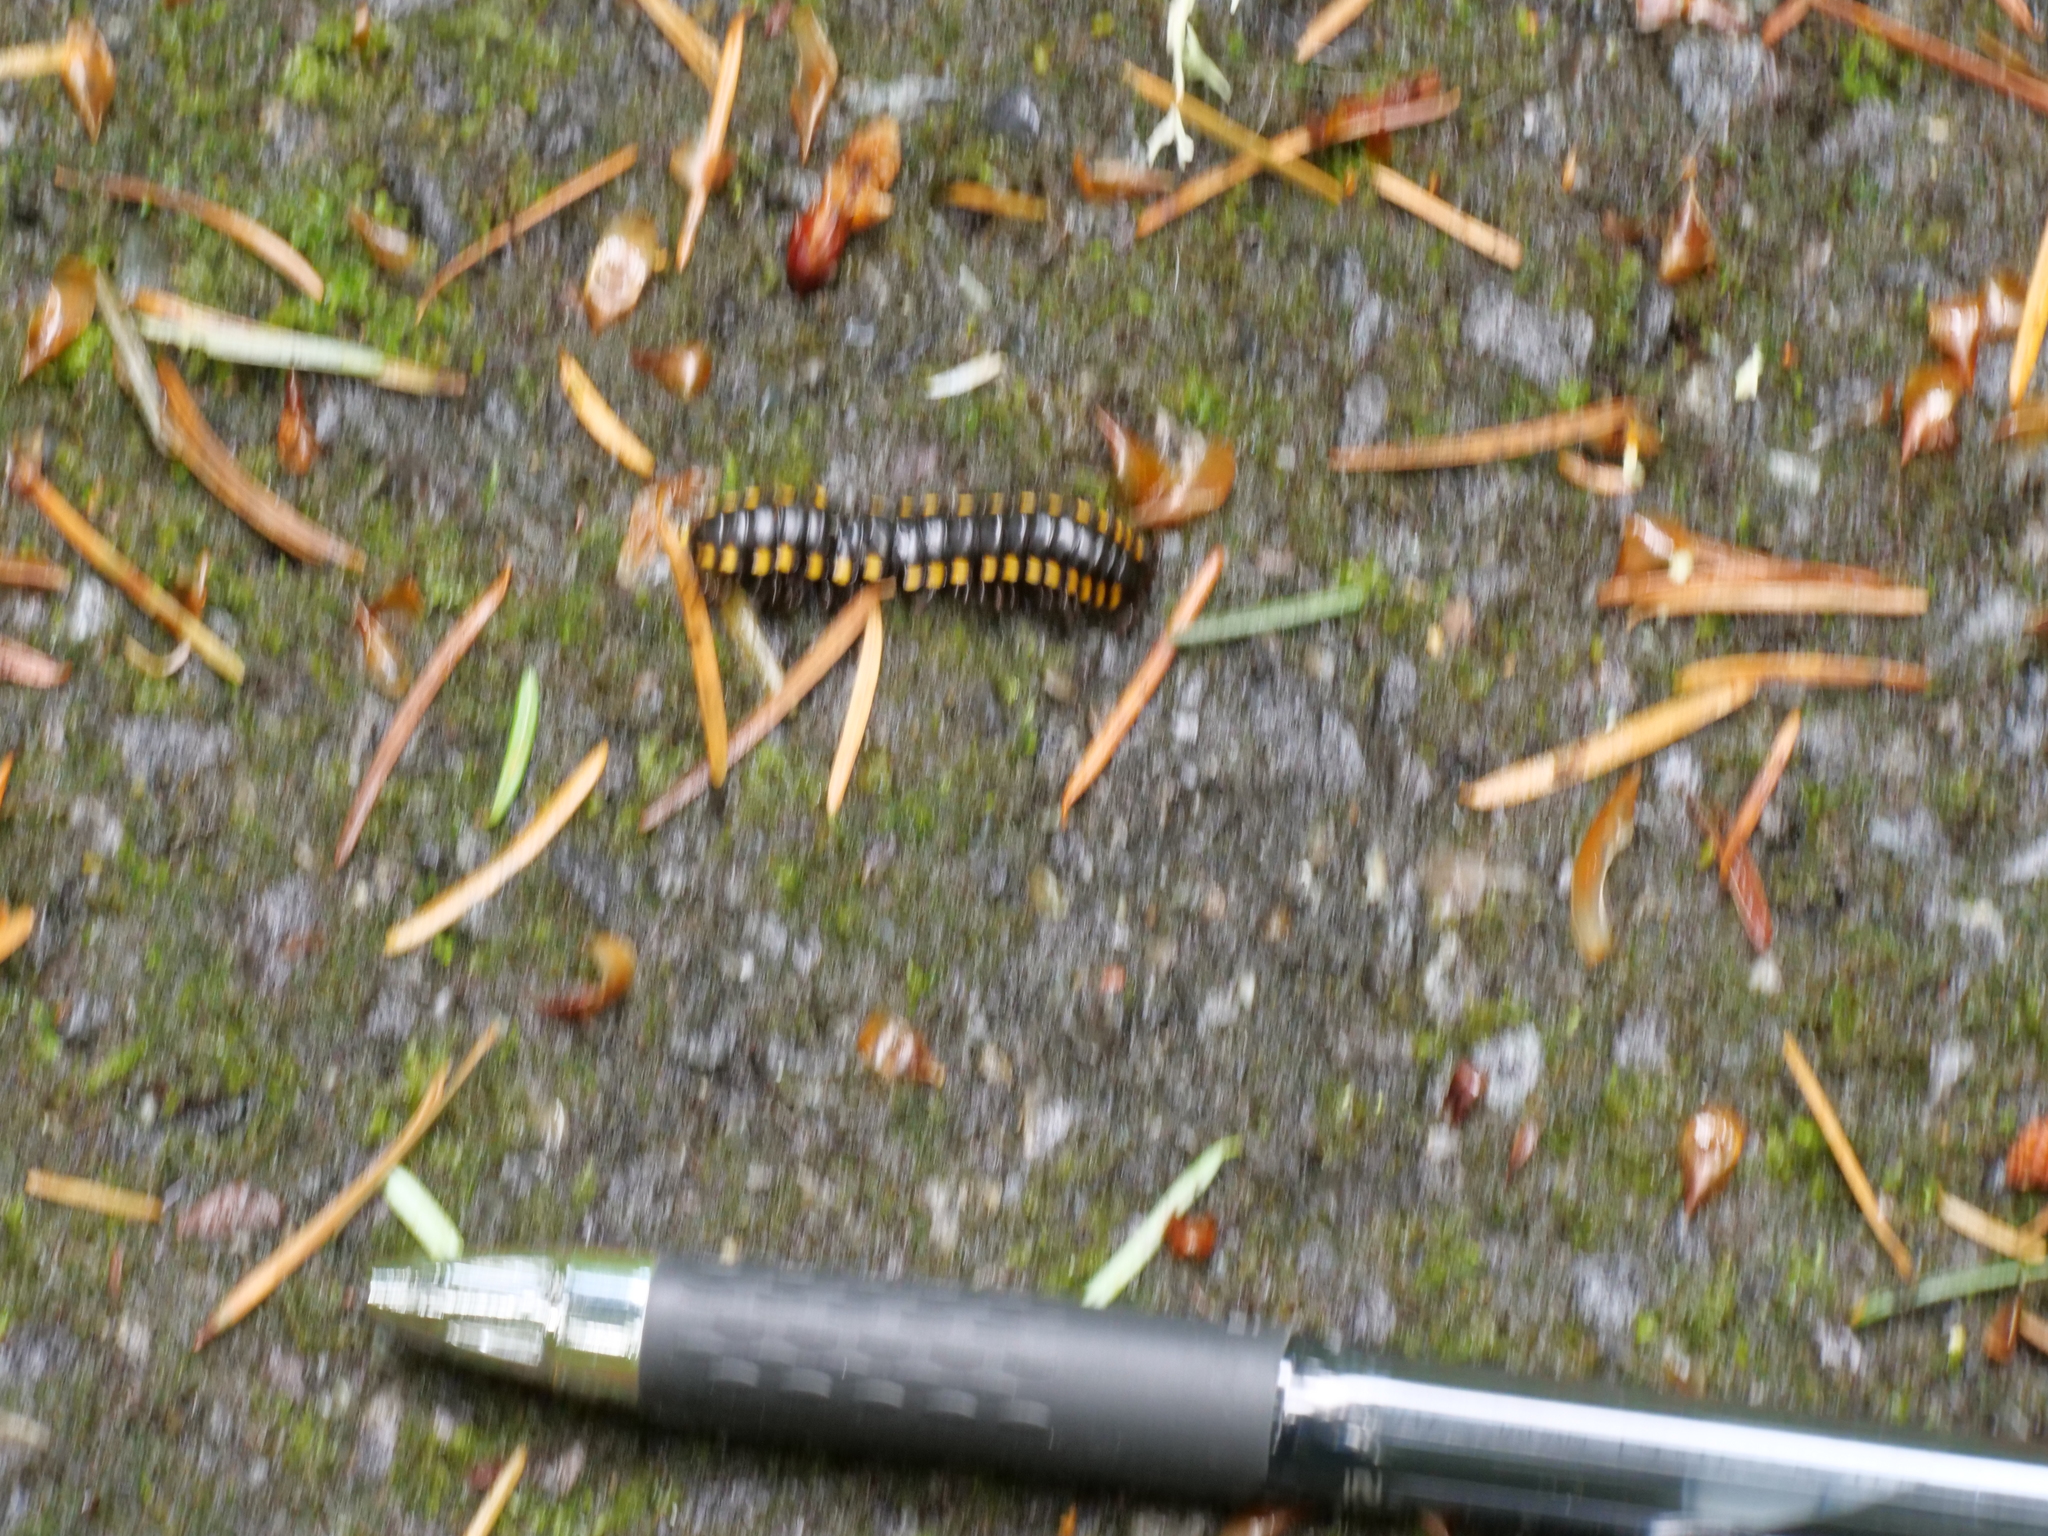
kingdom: Animalia
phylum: Arthropoda
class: Diplopoda
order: Polydesmida
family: Xystodesmidae
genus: Harpaphe
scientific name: Harpaphe haydeniana
